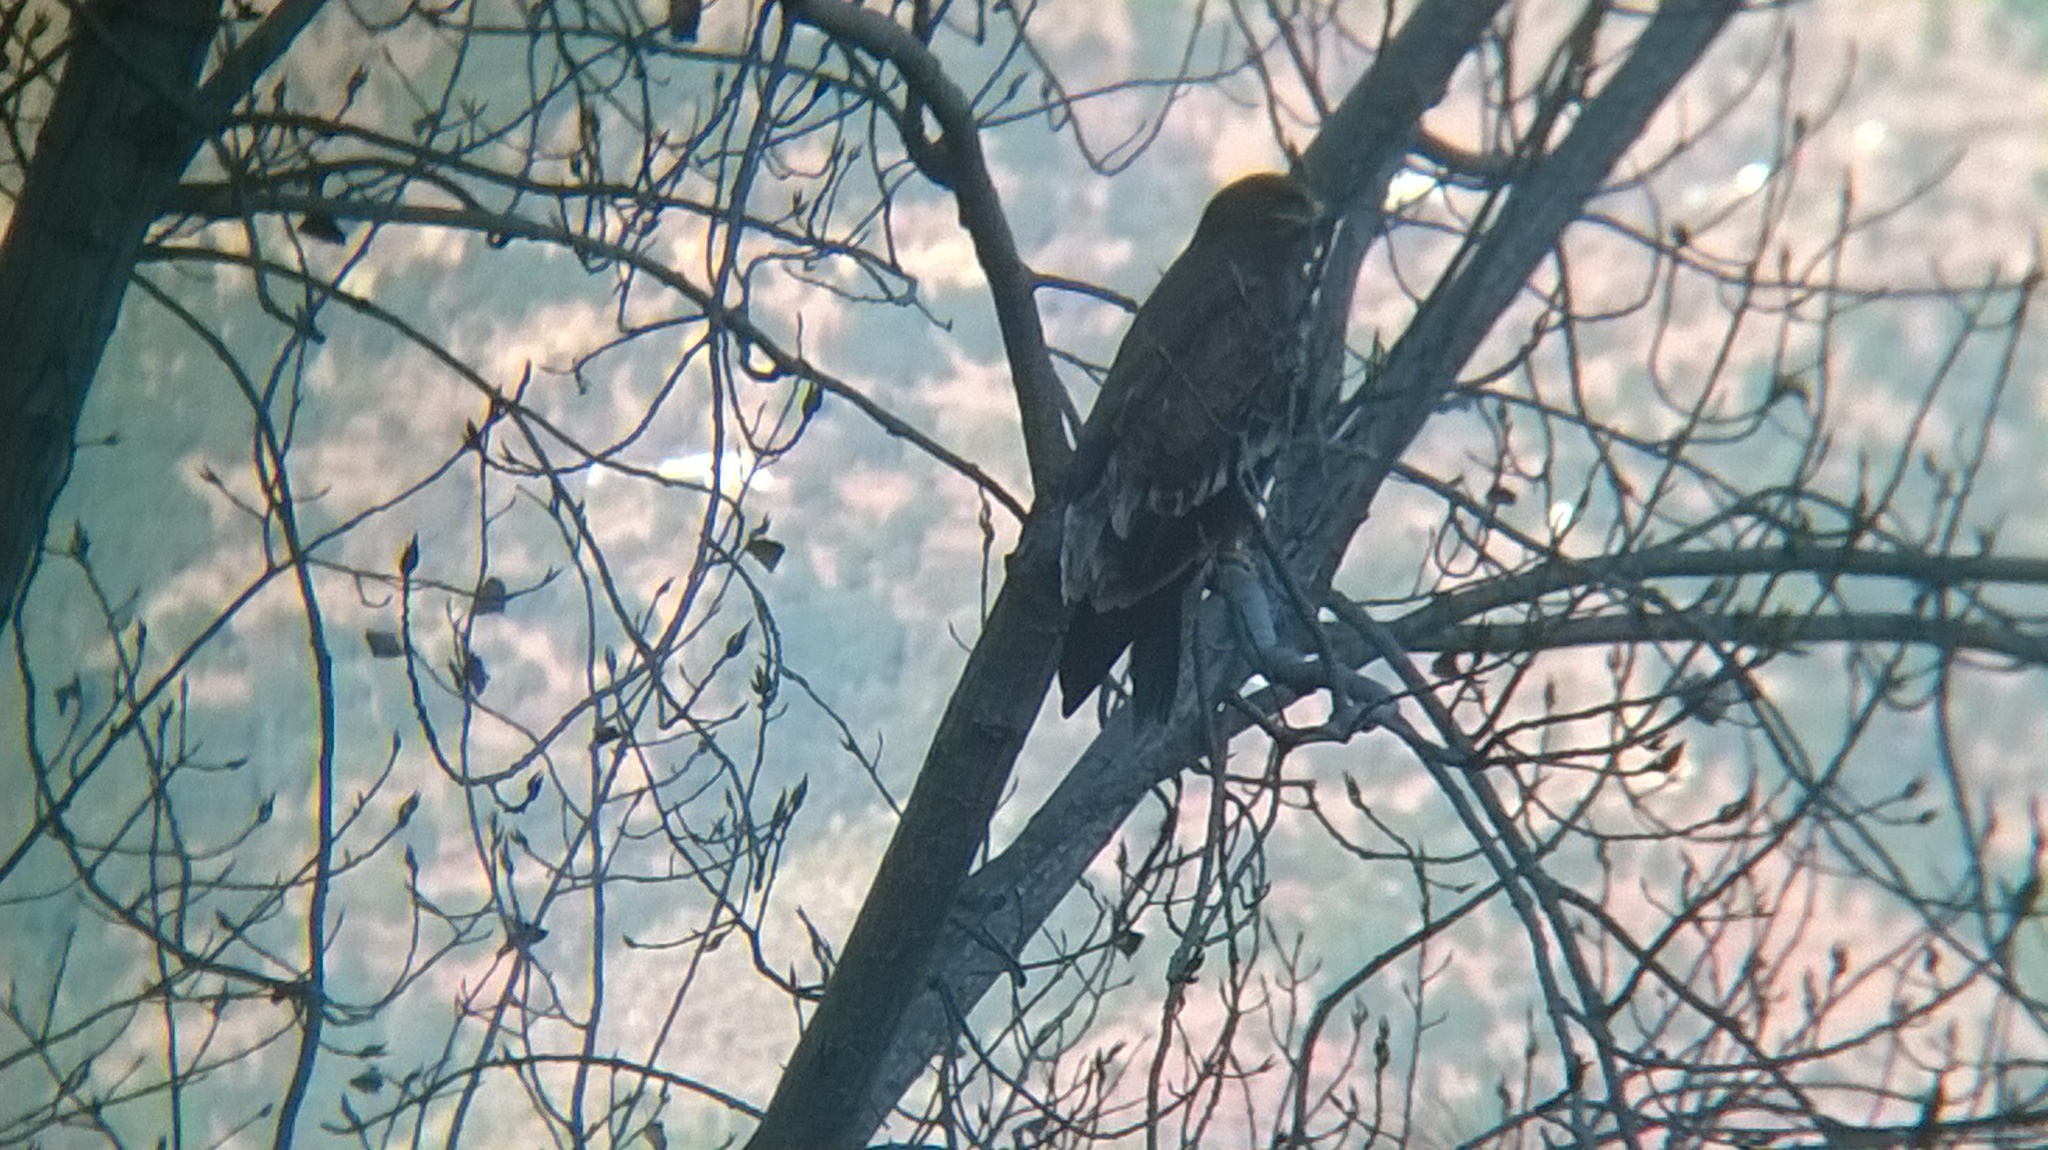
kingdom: Animalia
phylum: Chordata
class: Aves
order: Accipitriformes
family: Accipitridae
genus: Aquila
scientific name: Aquila nipalensis
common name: Steppe eagle
